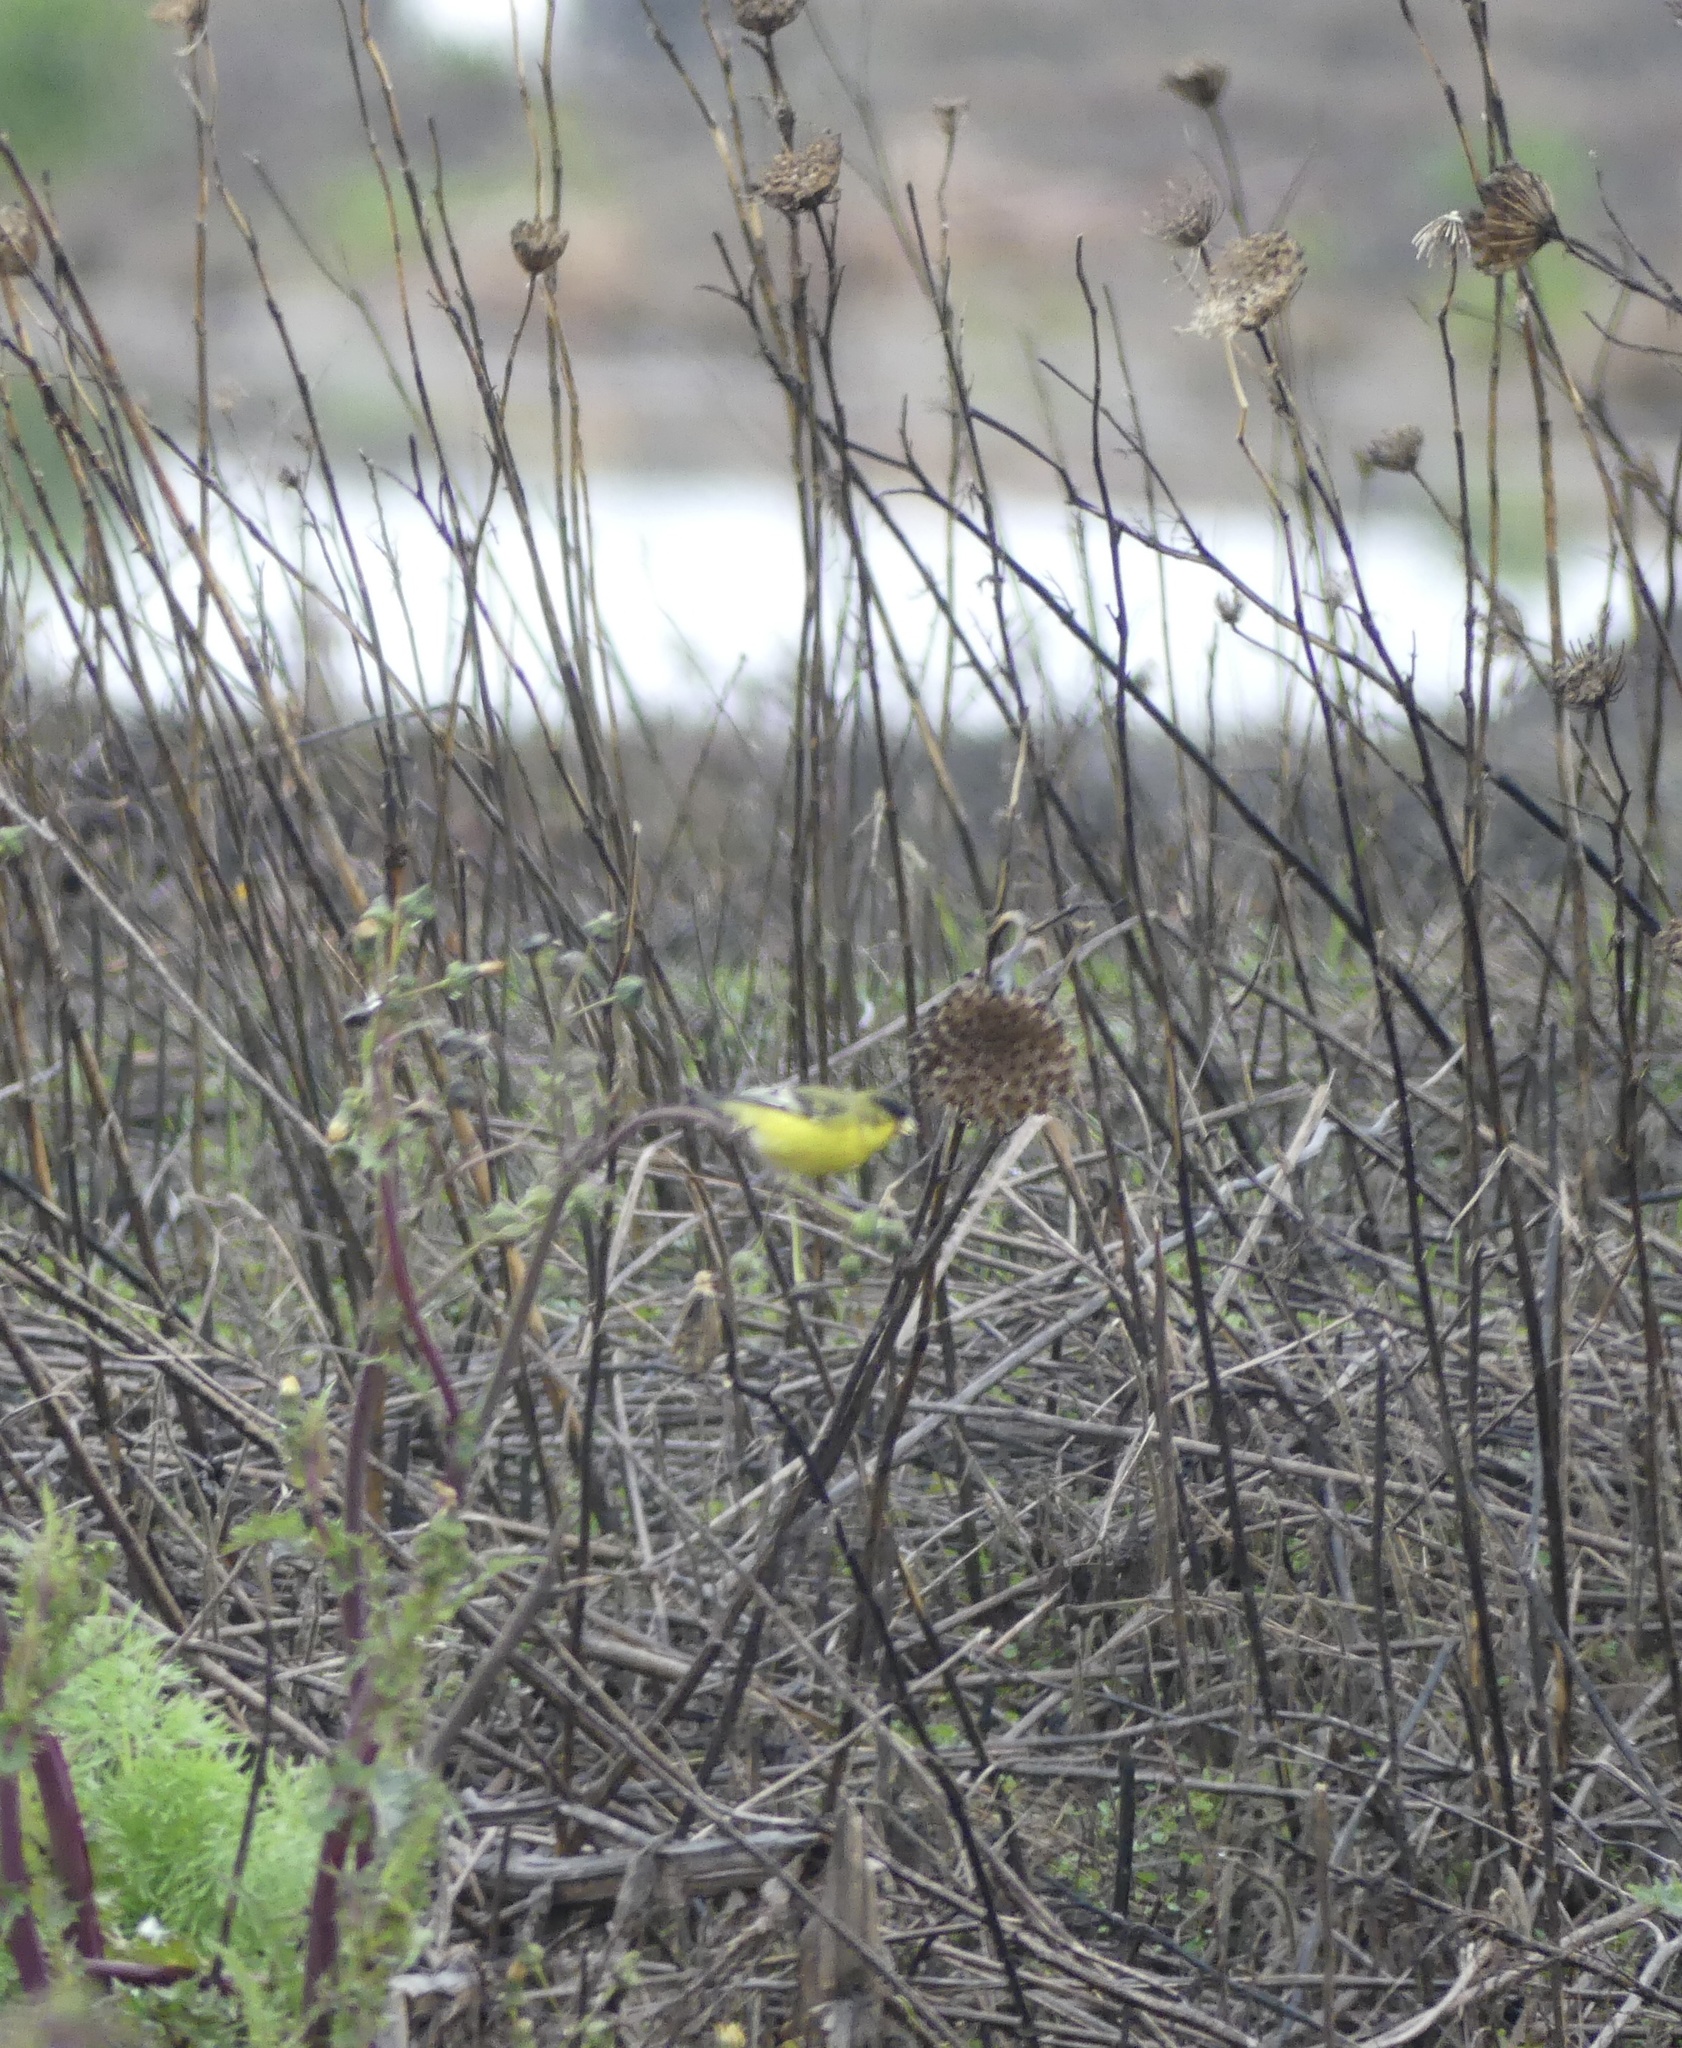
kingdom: Animalia
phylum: Chordata
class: Aves
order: Passeriformes
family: Fringillidae
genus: Spinus
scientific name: Spinus psaltria
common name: Lesser goldfinch
